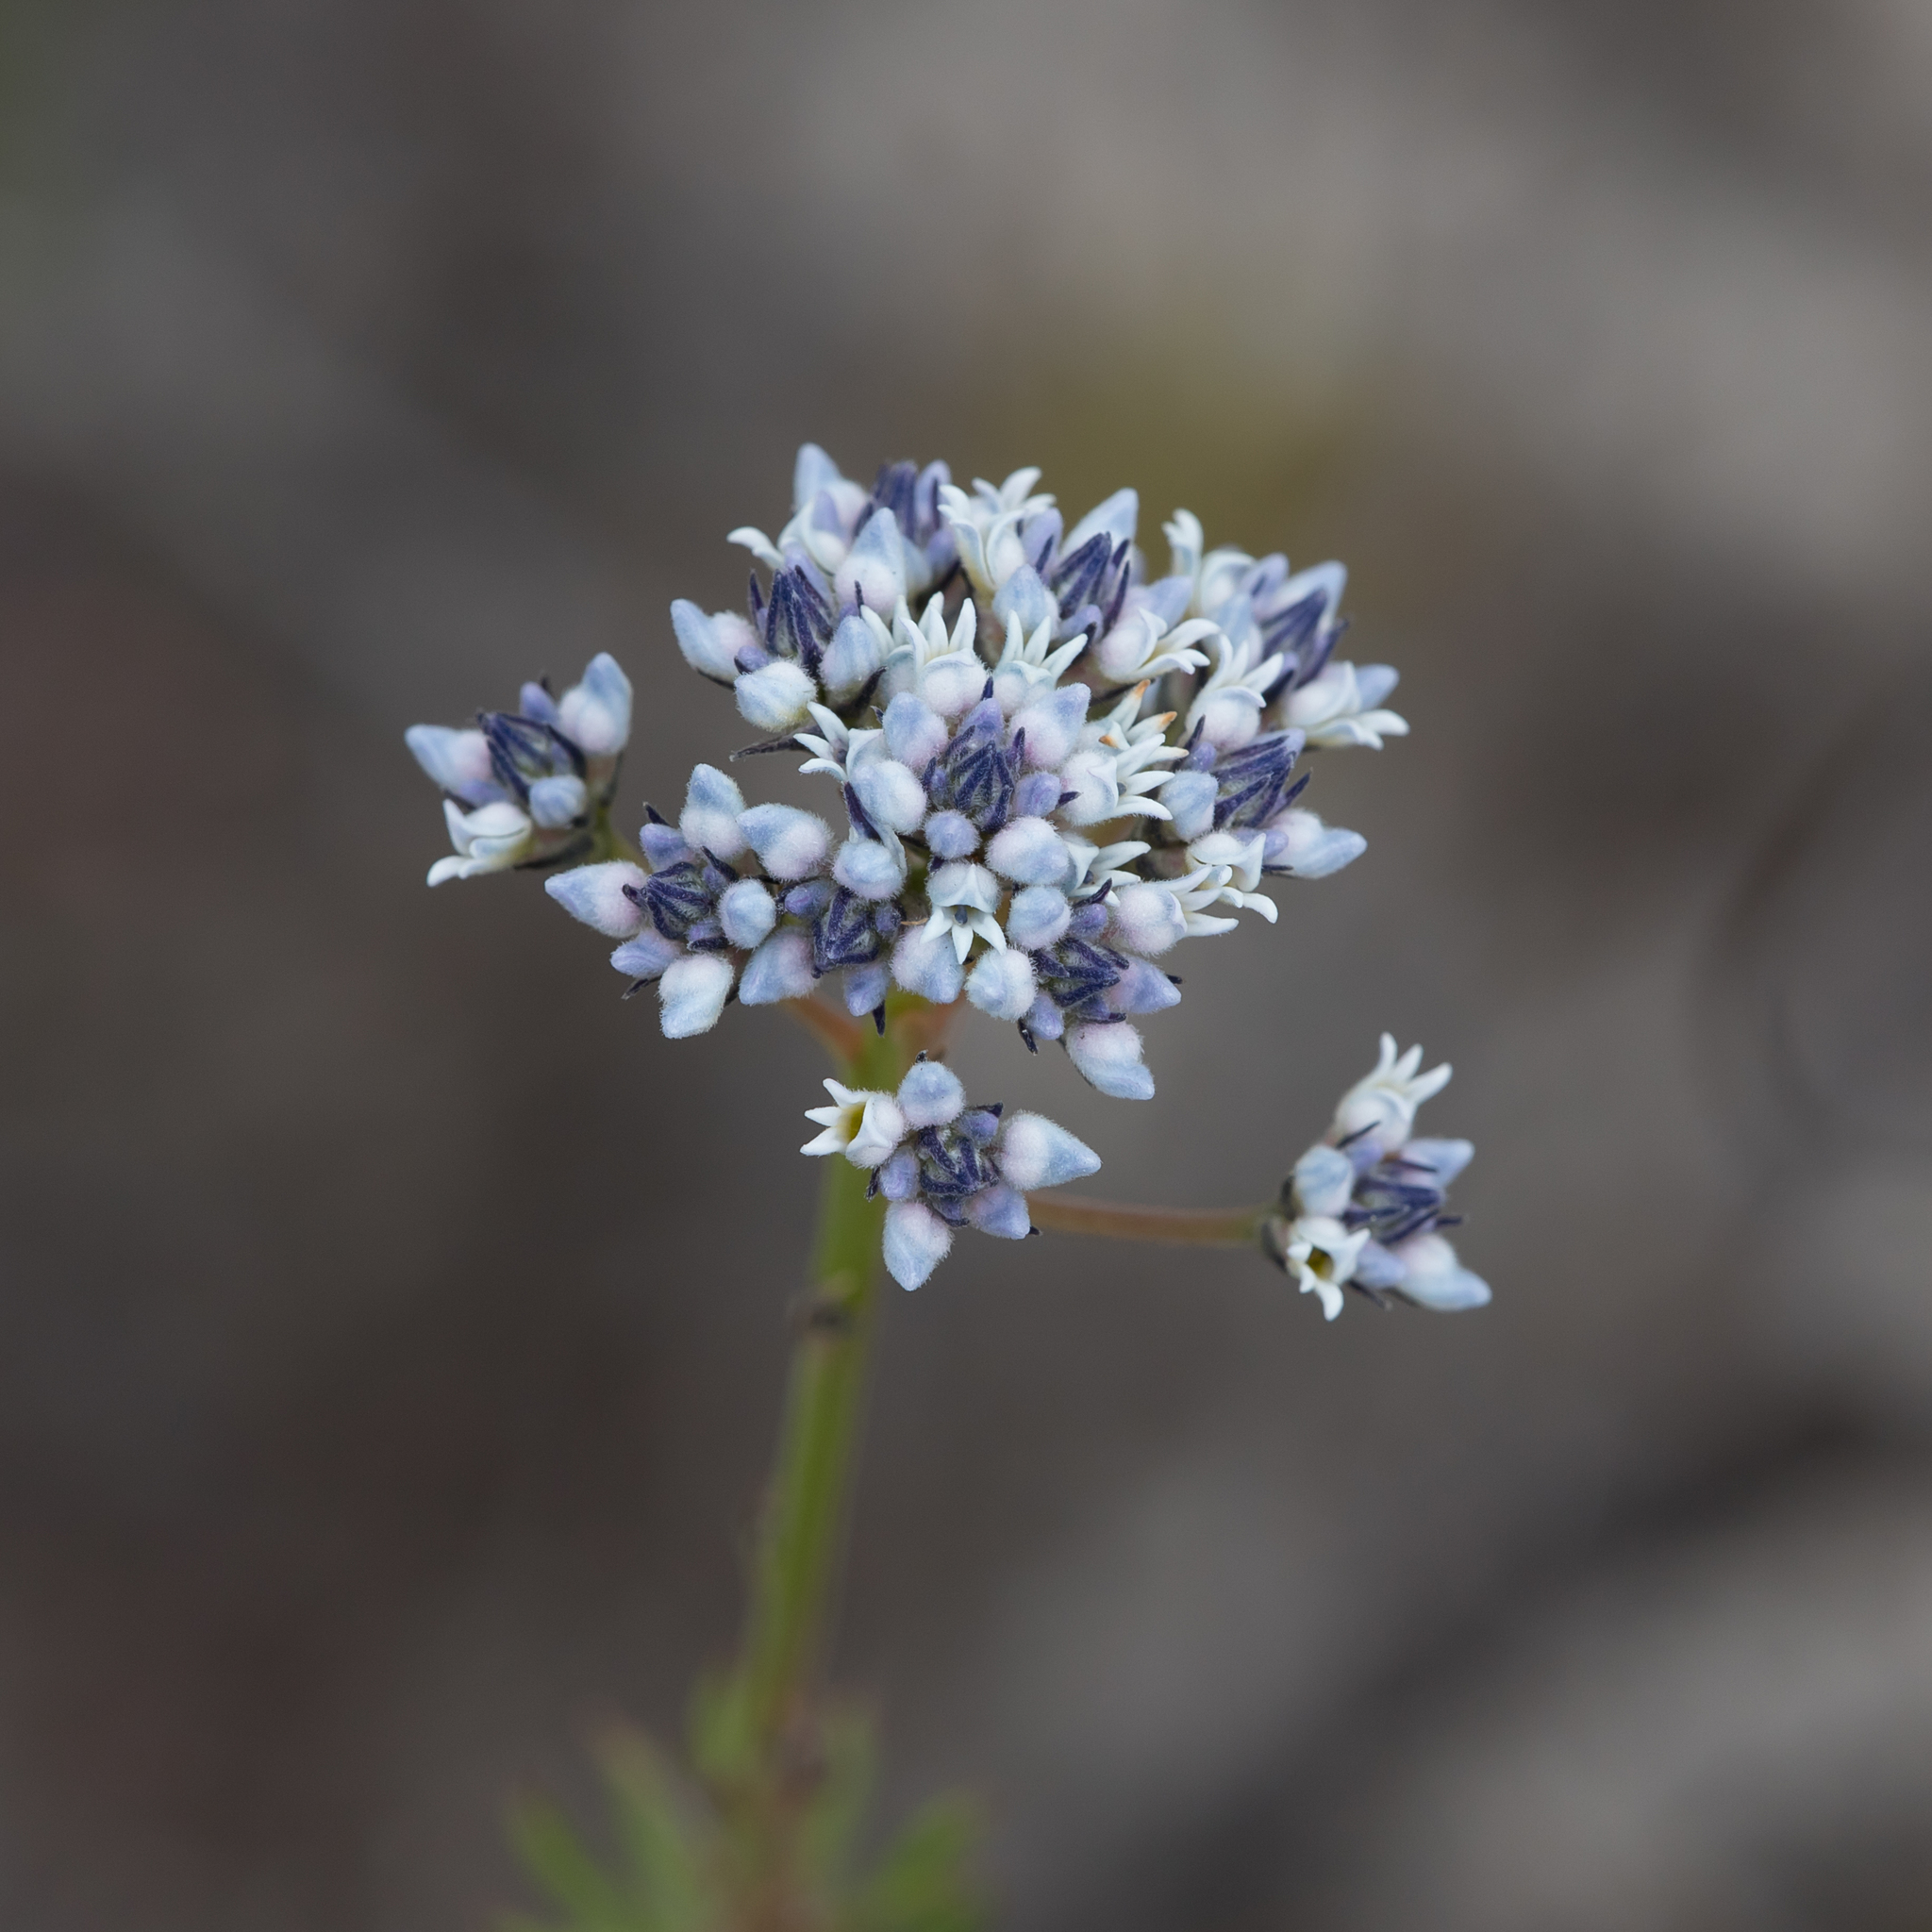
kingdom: Plantae
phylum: Tracheophyta
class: Magnoliopsida
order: Proteales
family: Proteaceae
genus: Conospermum
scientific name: Conospermum patens
